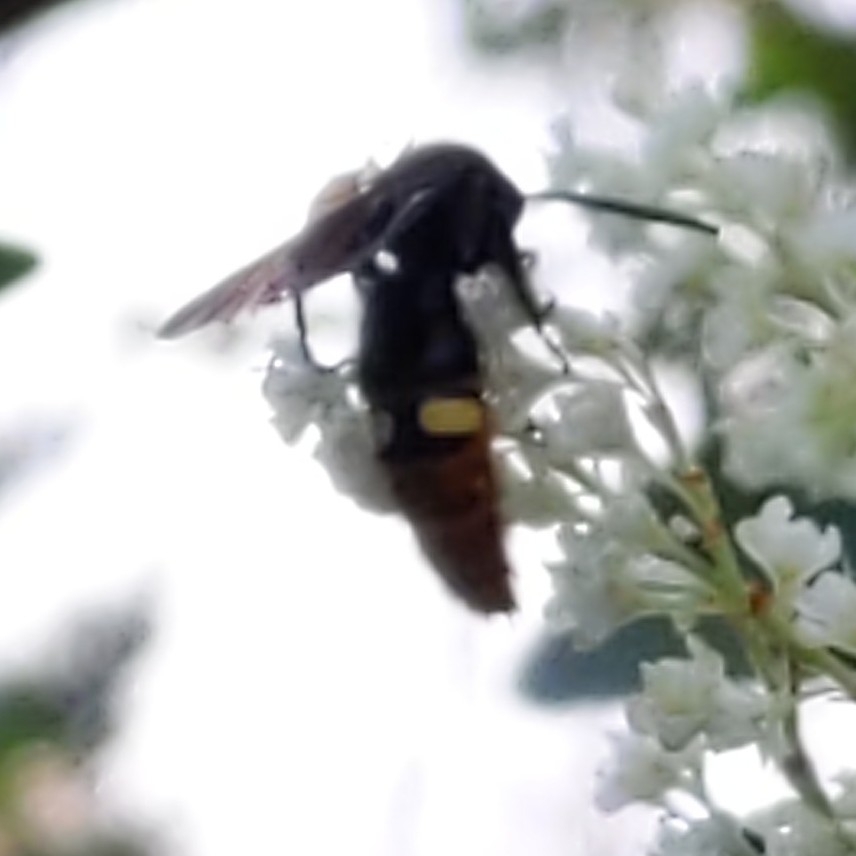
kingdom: Animalia
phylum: Arthropoda
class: Insecta
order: Hymenoptera
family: Scoliidae
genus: Scolia
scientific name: Scolia dubia
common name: Blue-winged scoliid wasp
